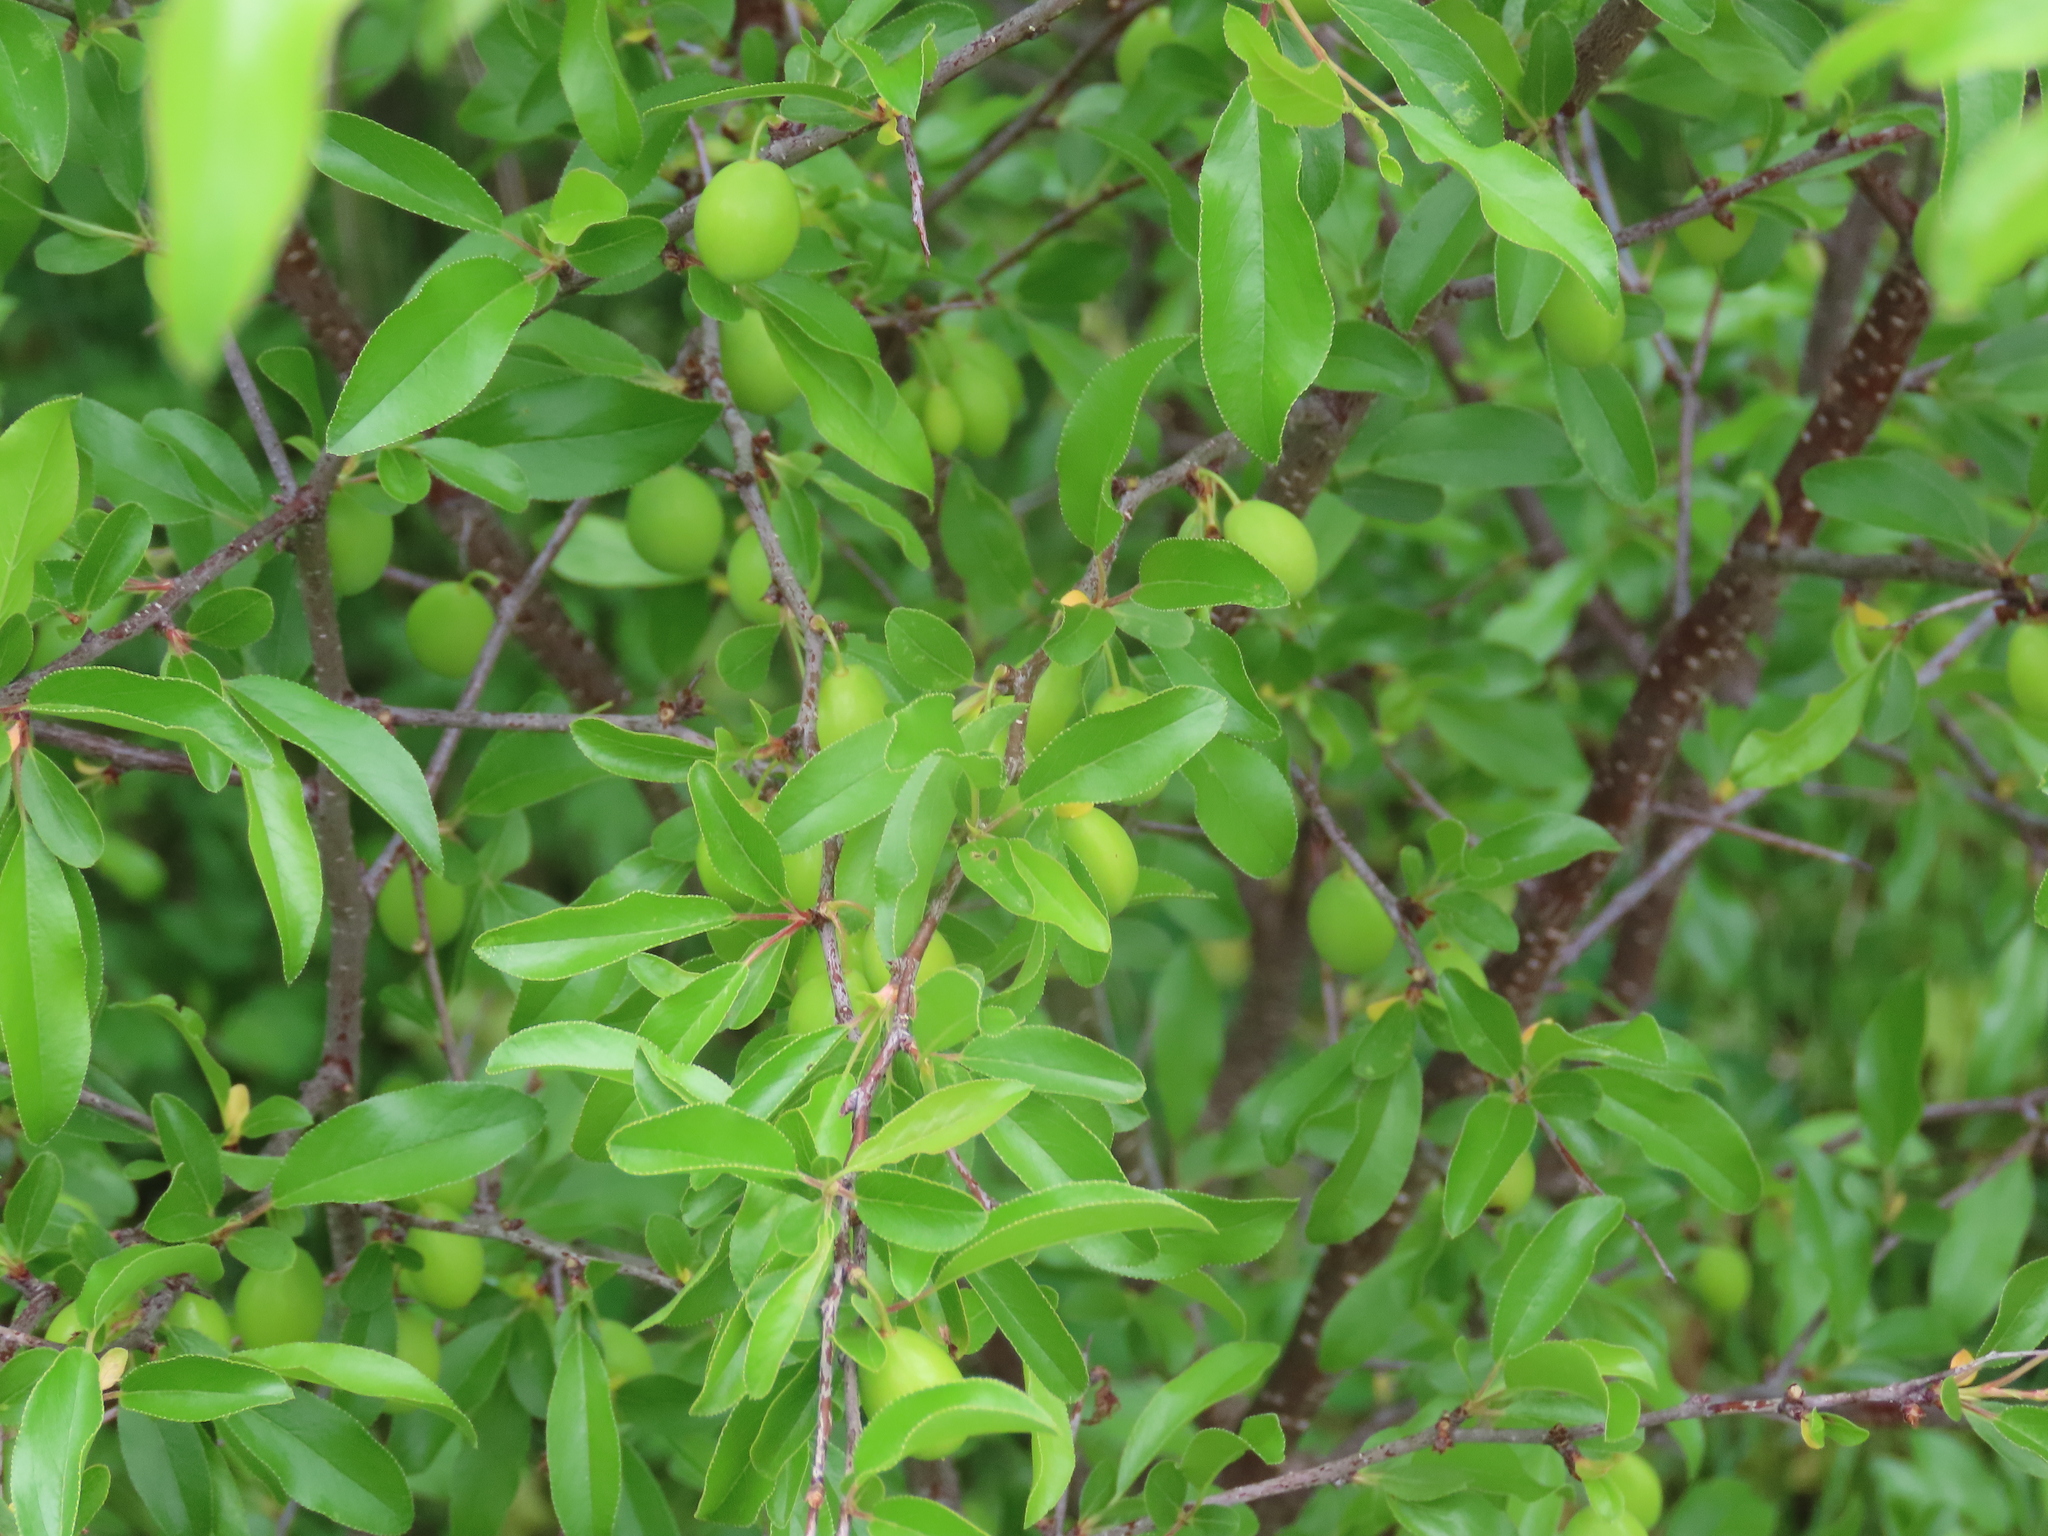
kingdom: Plantae
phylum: Tracheophyta
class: Magnoliopsida
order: Rosales
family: Rosaceae
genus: Prunus
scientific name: Prunus angustifolia
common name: Cherokee plum
